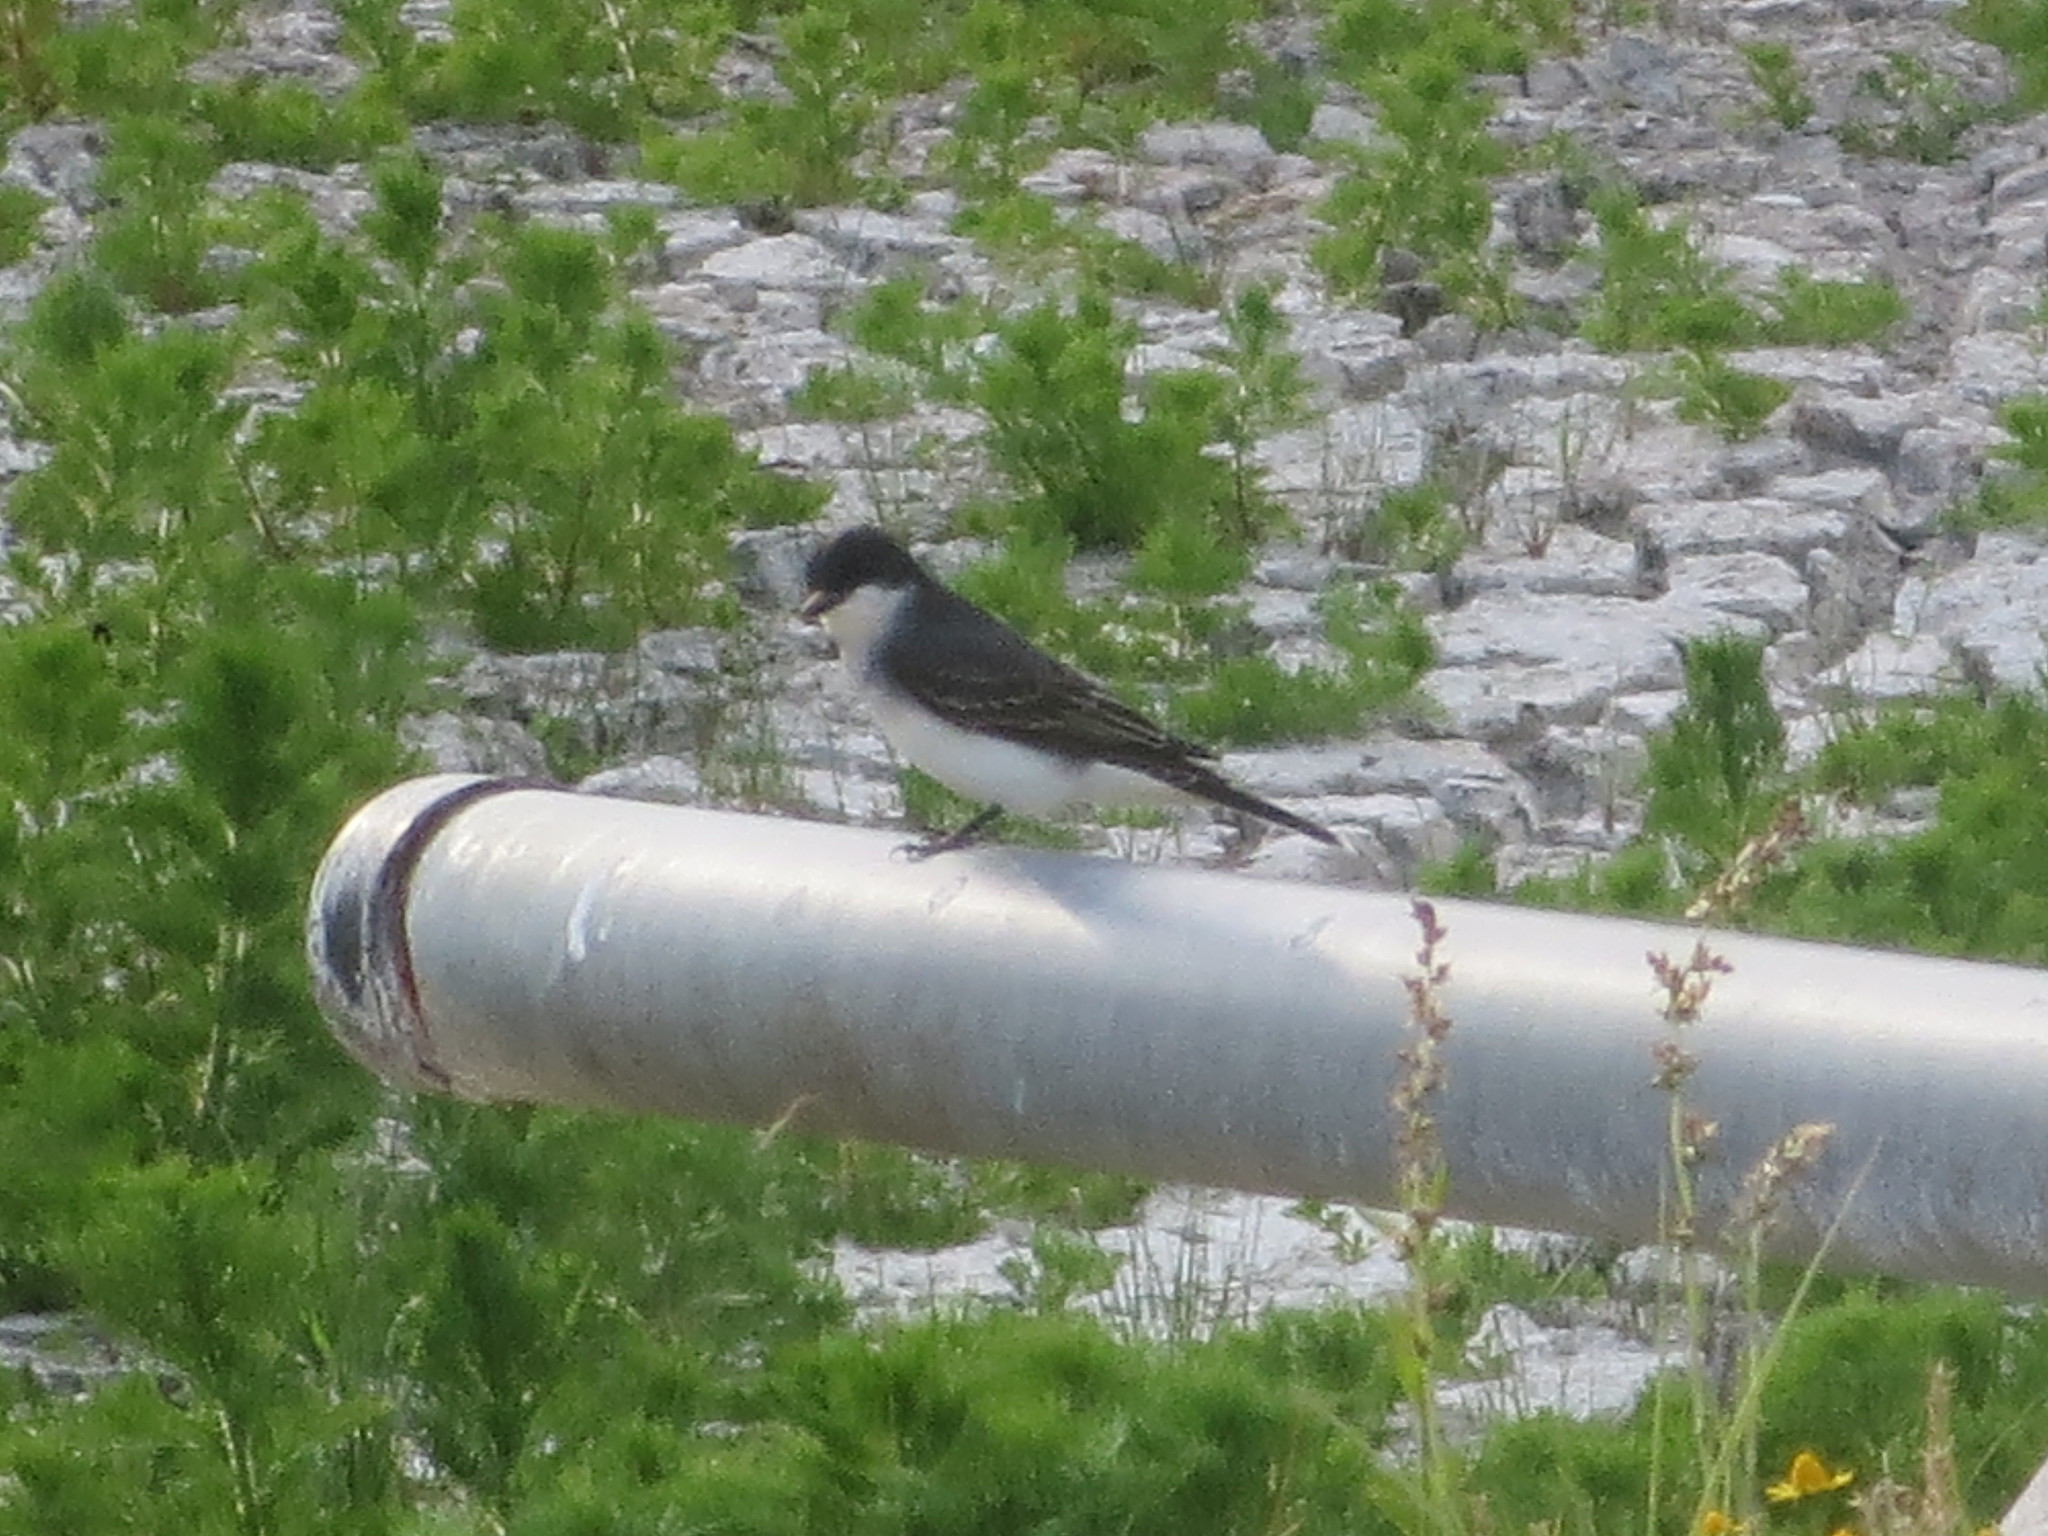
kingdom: Animalia
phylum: Chordata
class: Aves
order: Passeriformes
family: Tyrannidae
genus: Tyrannus
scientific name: Tyrannus tyrannus
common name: Eastern kingbird
